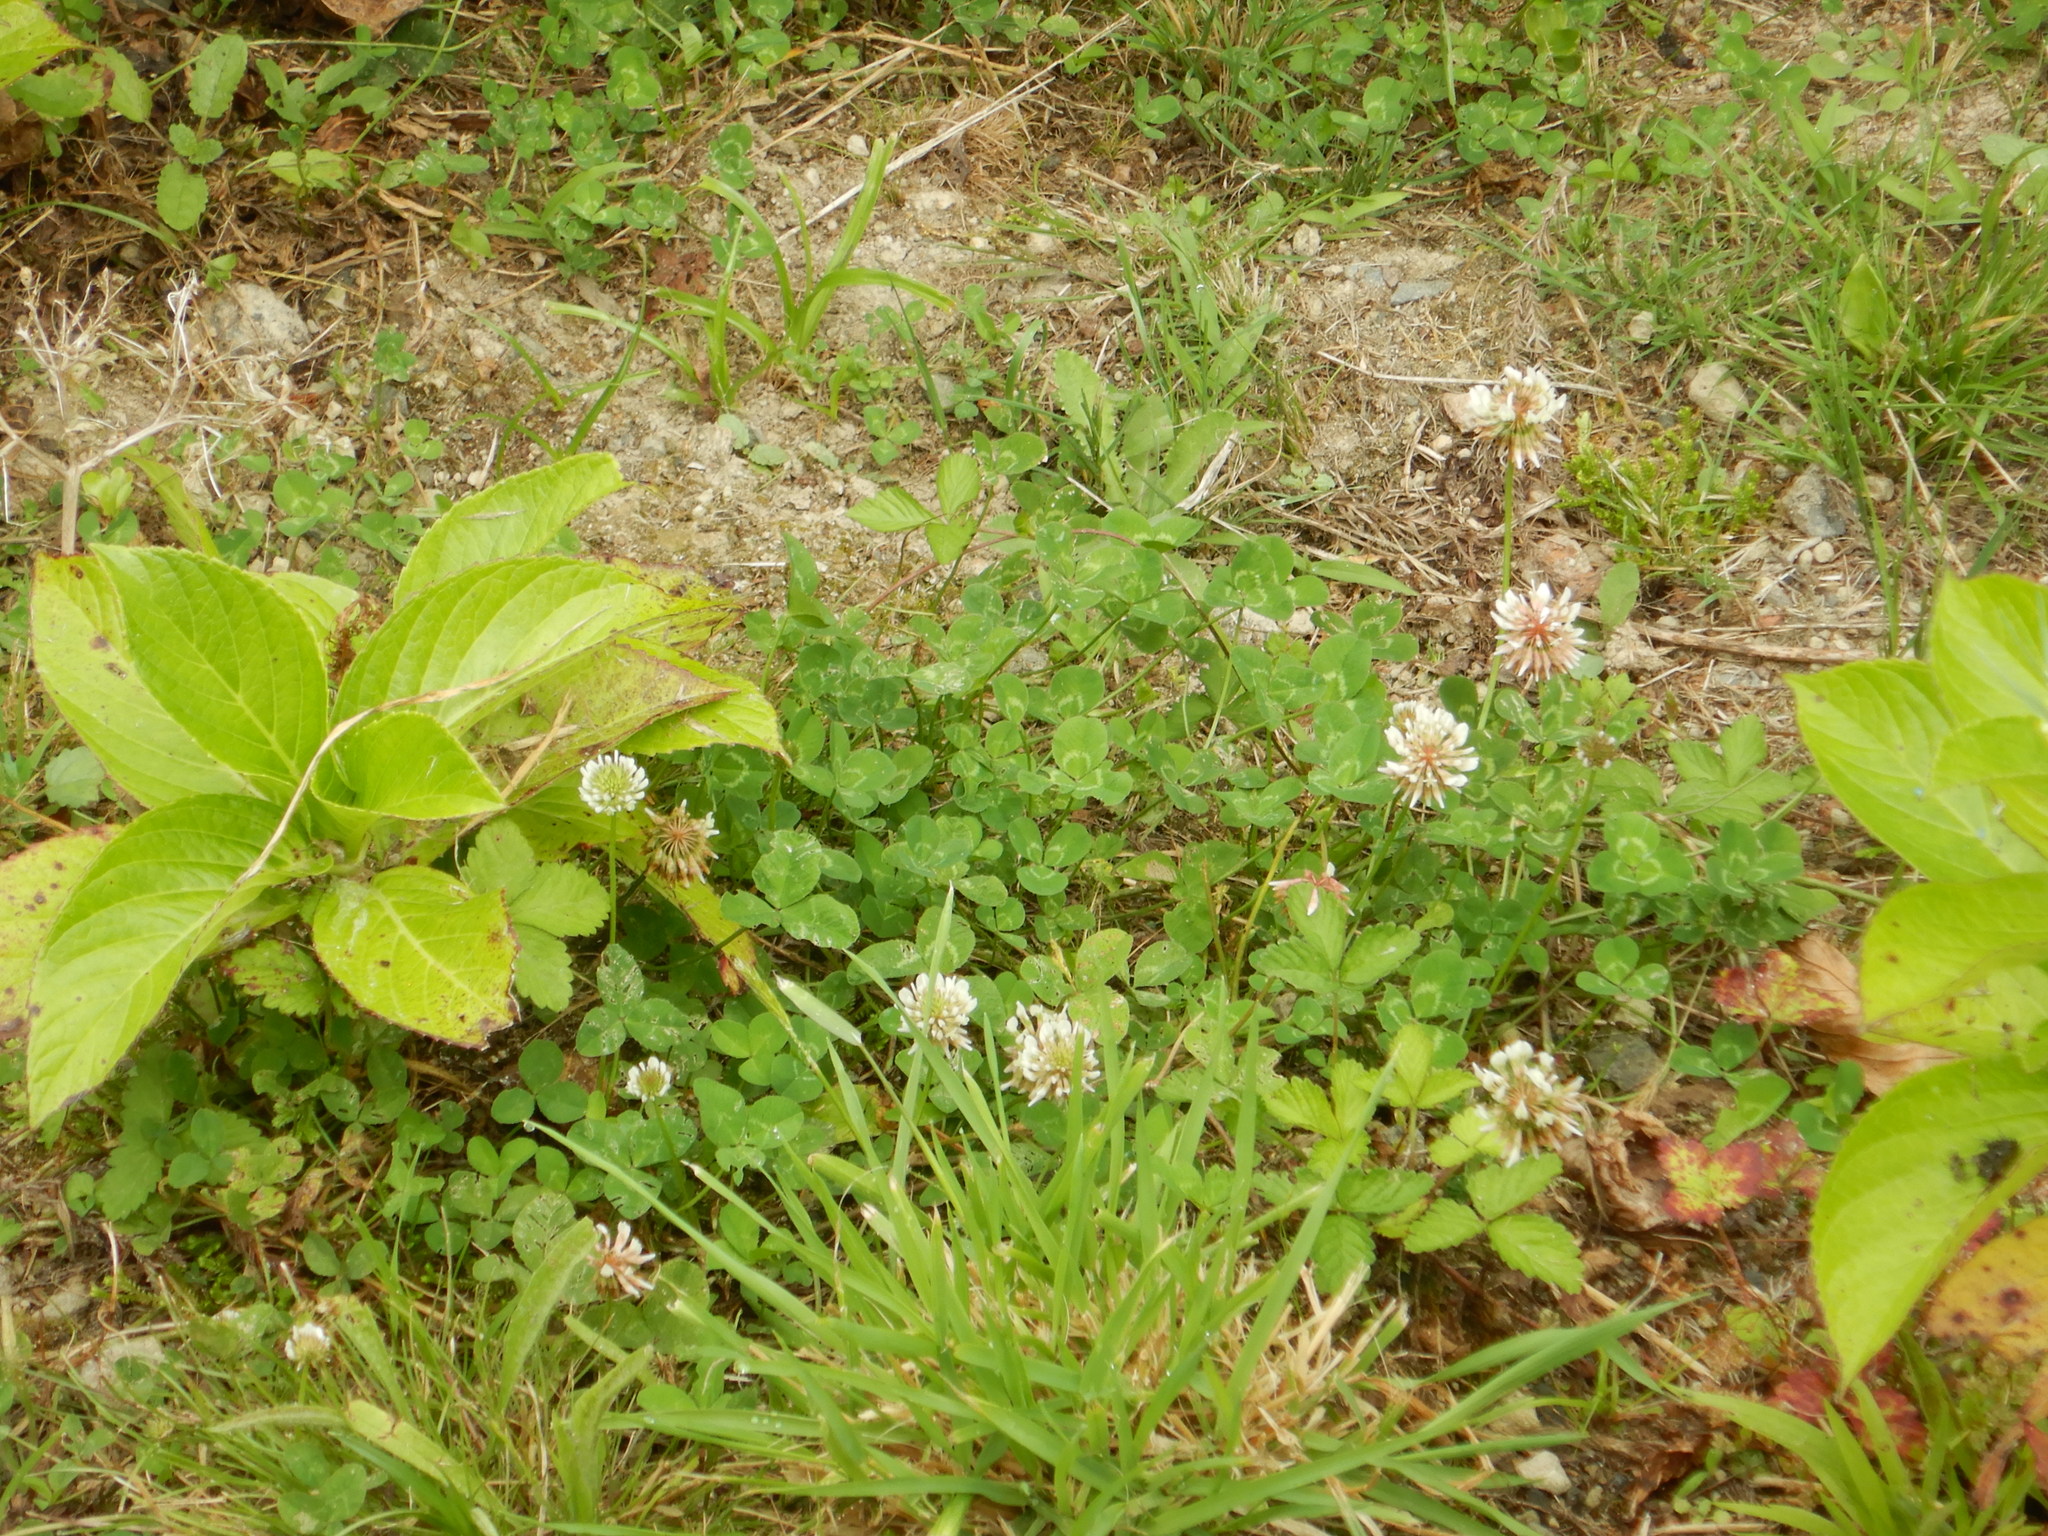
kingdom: Plantae
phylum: Tracheophyta
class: Magnoliopsida
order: Fabales
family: Fabaceae
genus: Trifolium
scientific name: Trifolium repens
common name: White clover
